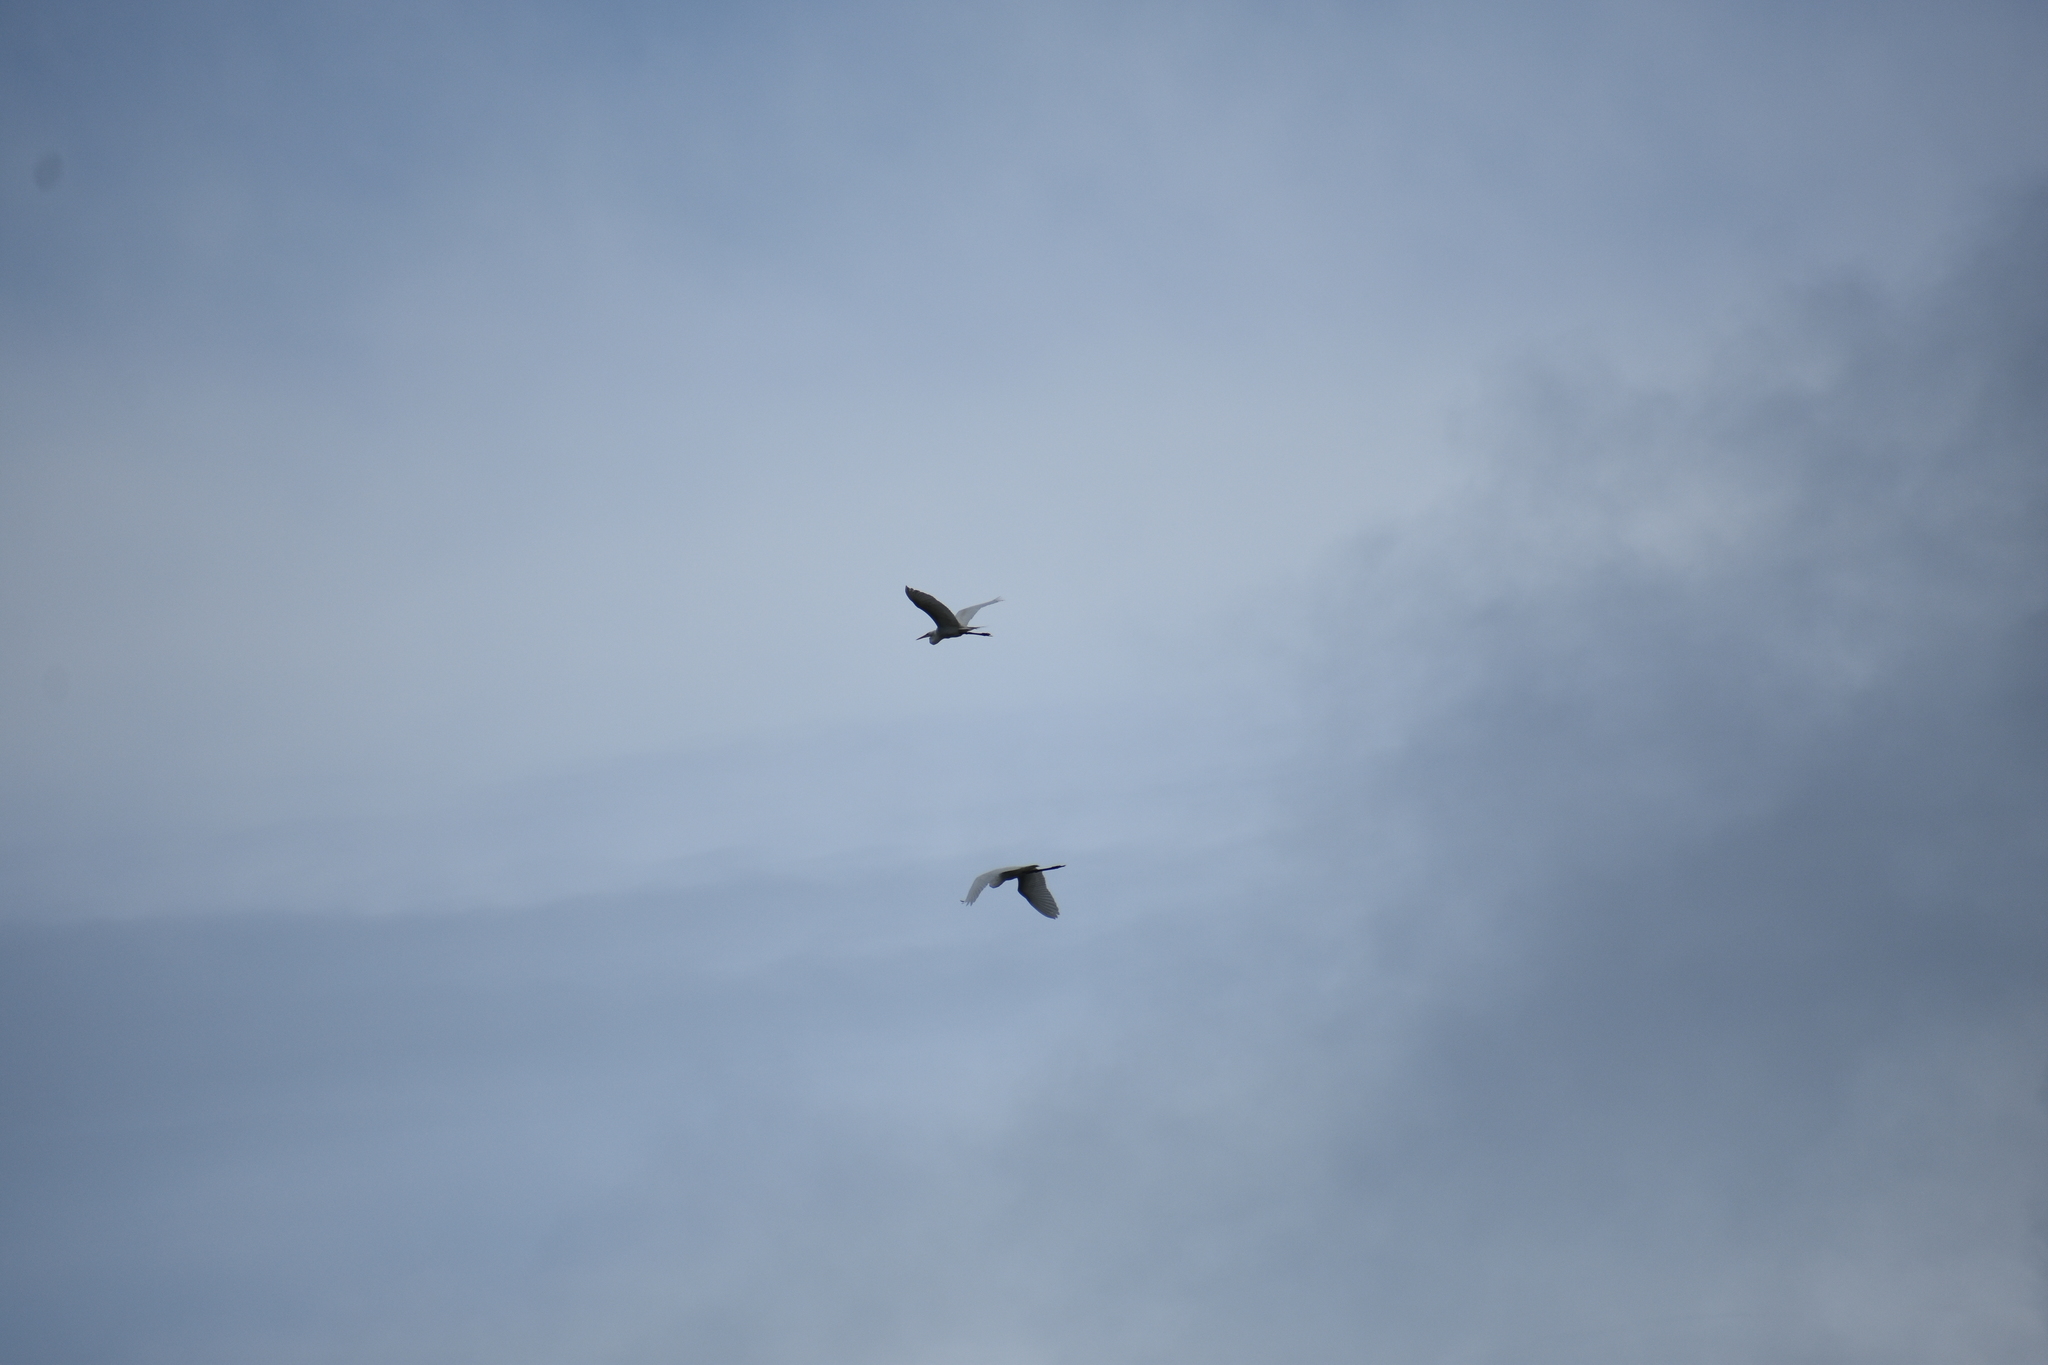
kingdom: Animalia
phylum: Chordata
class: Aves
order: Pelecaniformes
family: Ardeidae
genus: Ardea
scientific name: Ardea alba
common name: Great egret
